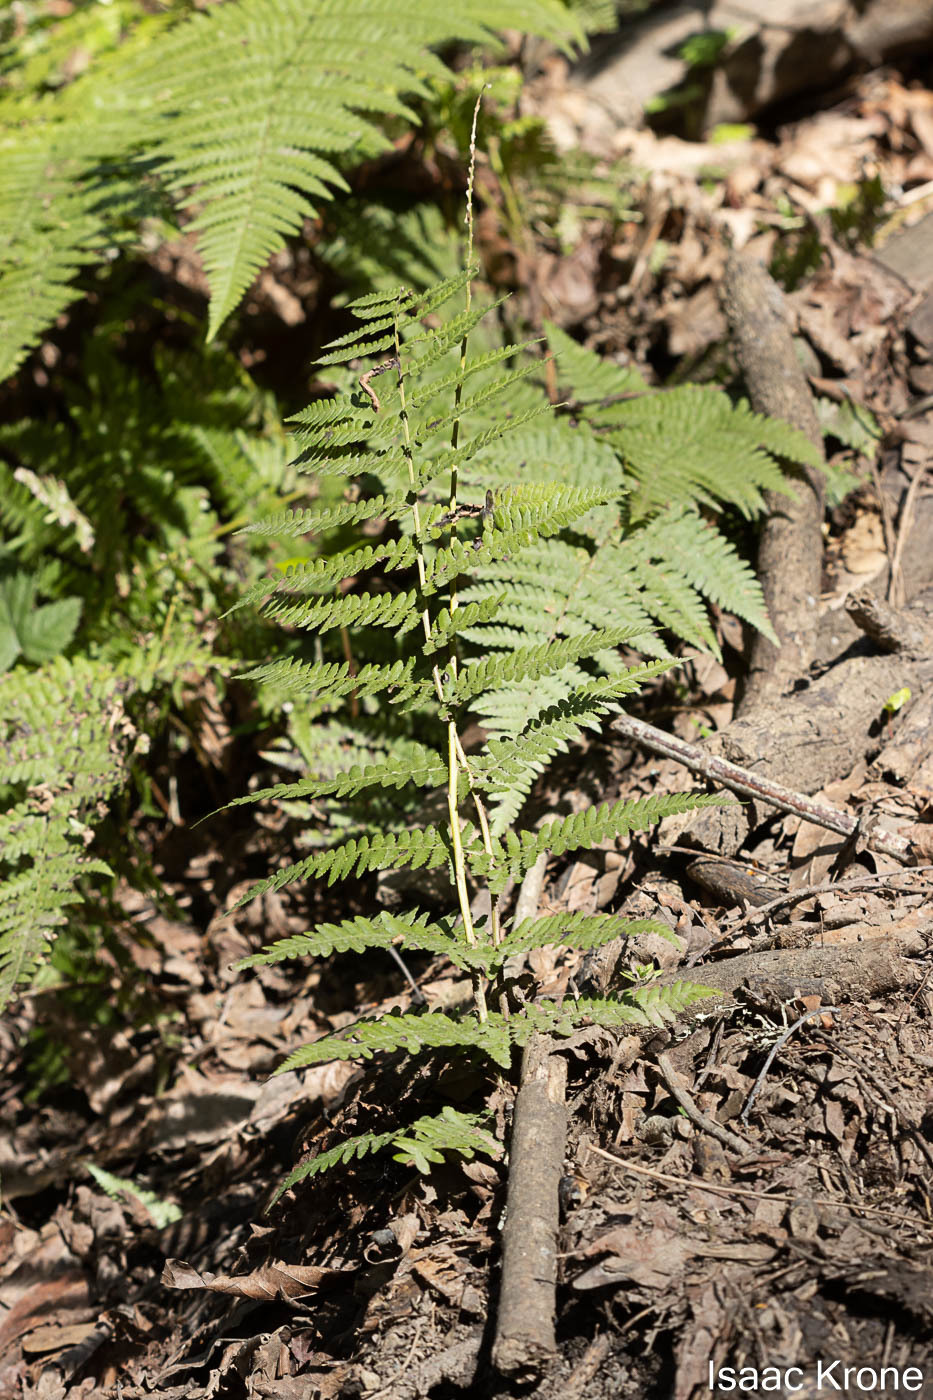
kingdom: Plantae
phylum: Tracheophyta
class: Polypodiopsida
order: Polypodiales
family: Dryopteridaceae
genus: Dryopteris
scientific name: Dryopteris arguta
